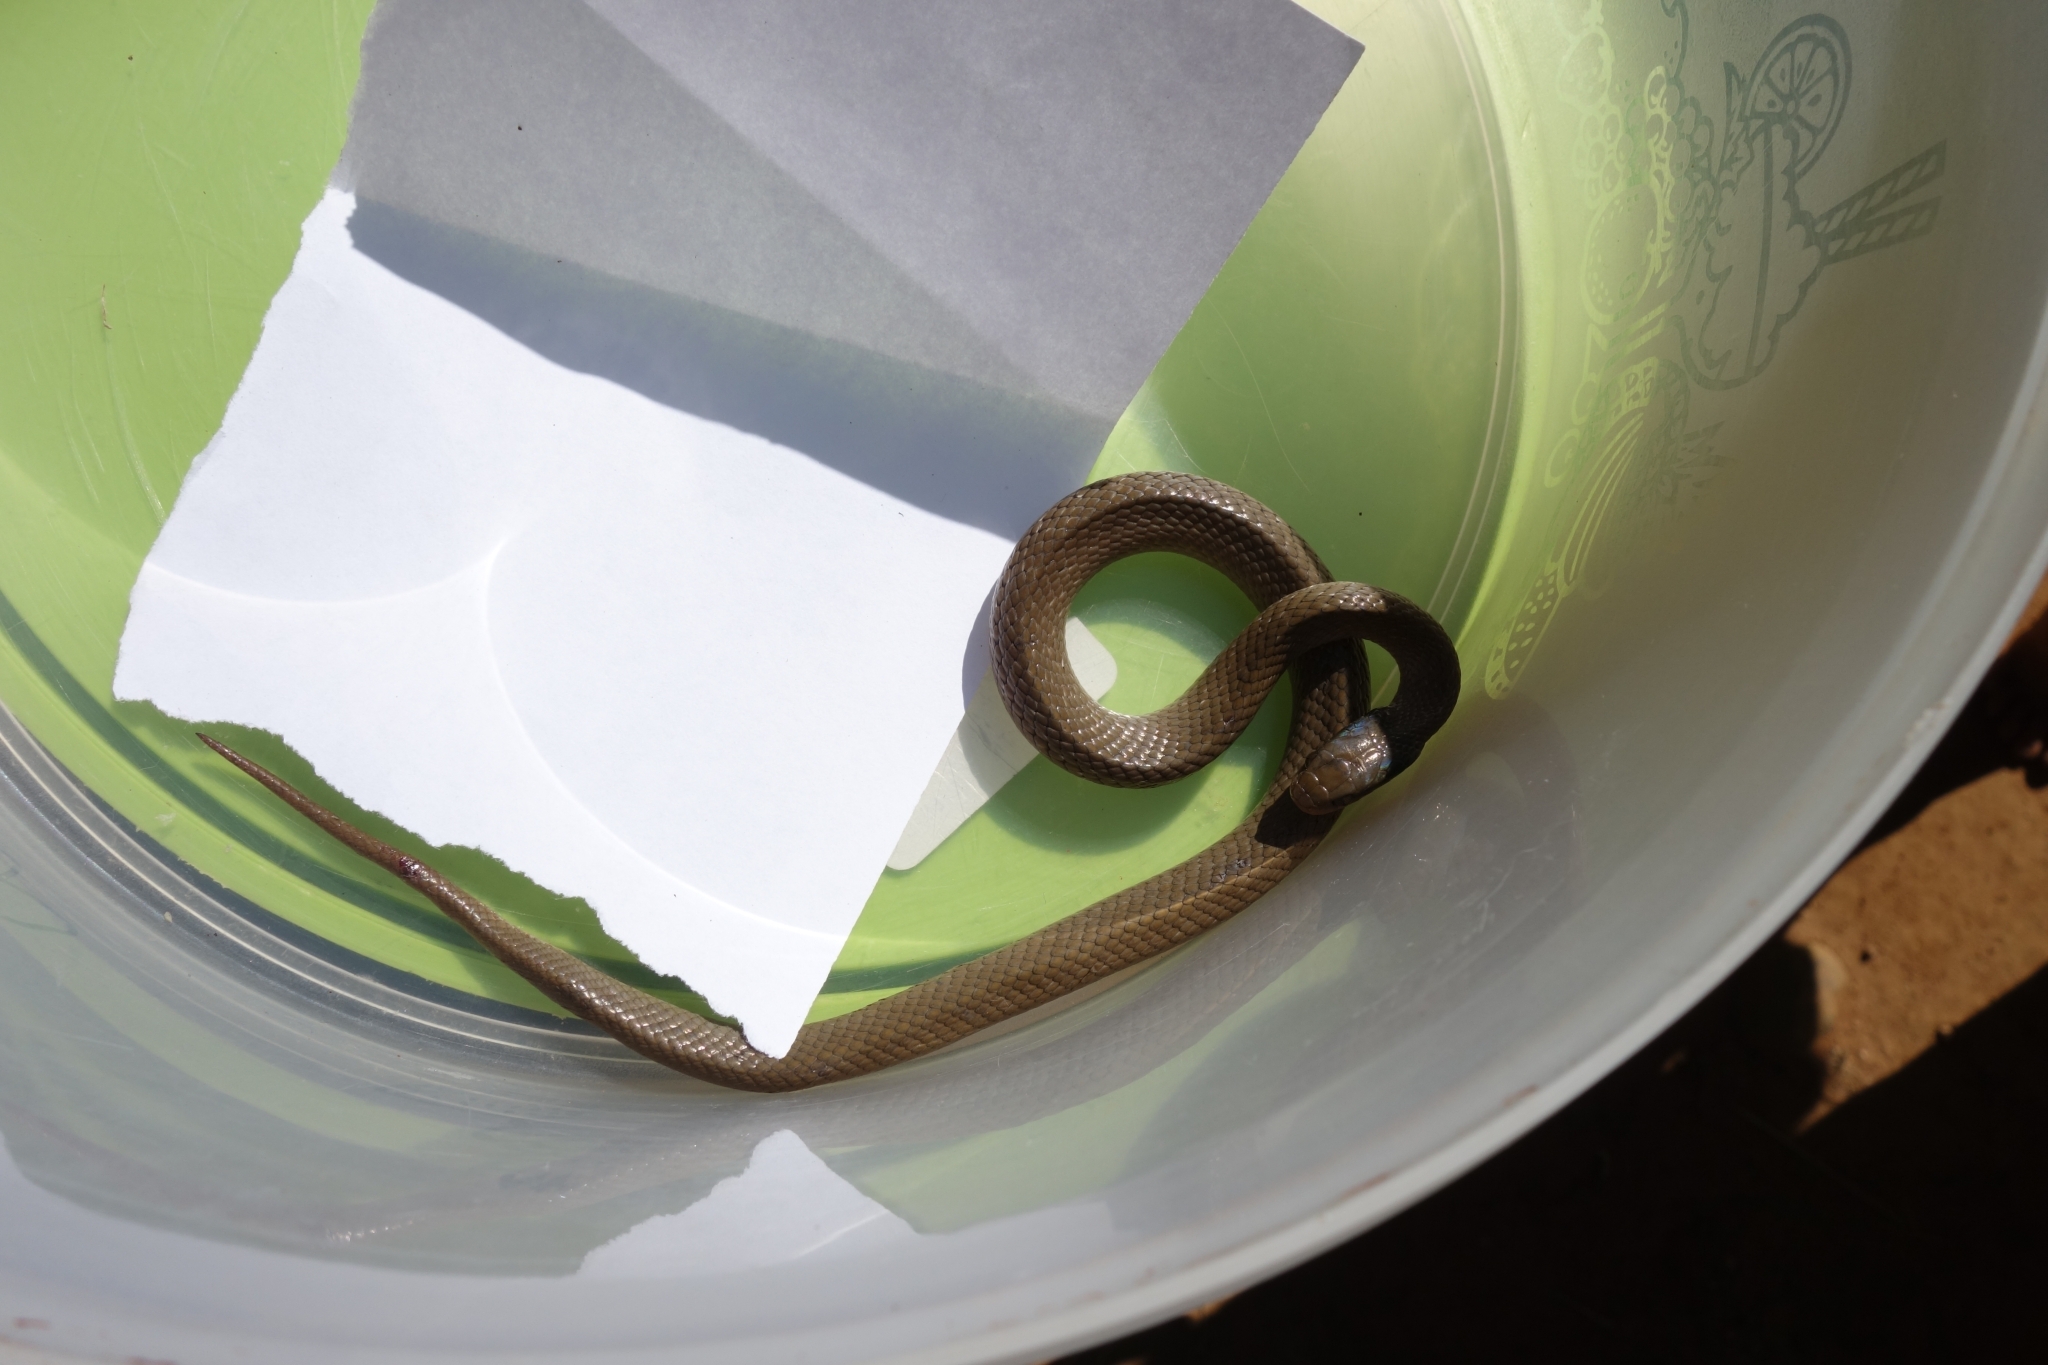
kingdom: Animalia
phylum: Chordata
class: Squamata
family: Colubridae
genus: Crotaphopeltis
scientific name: Crotaphopeltis hotamboeia
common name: Red-lipped snake
